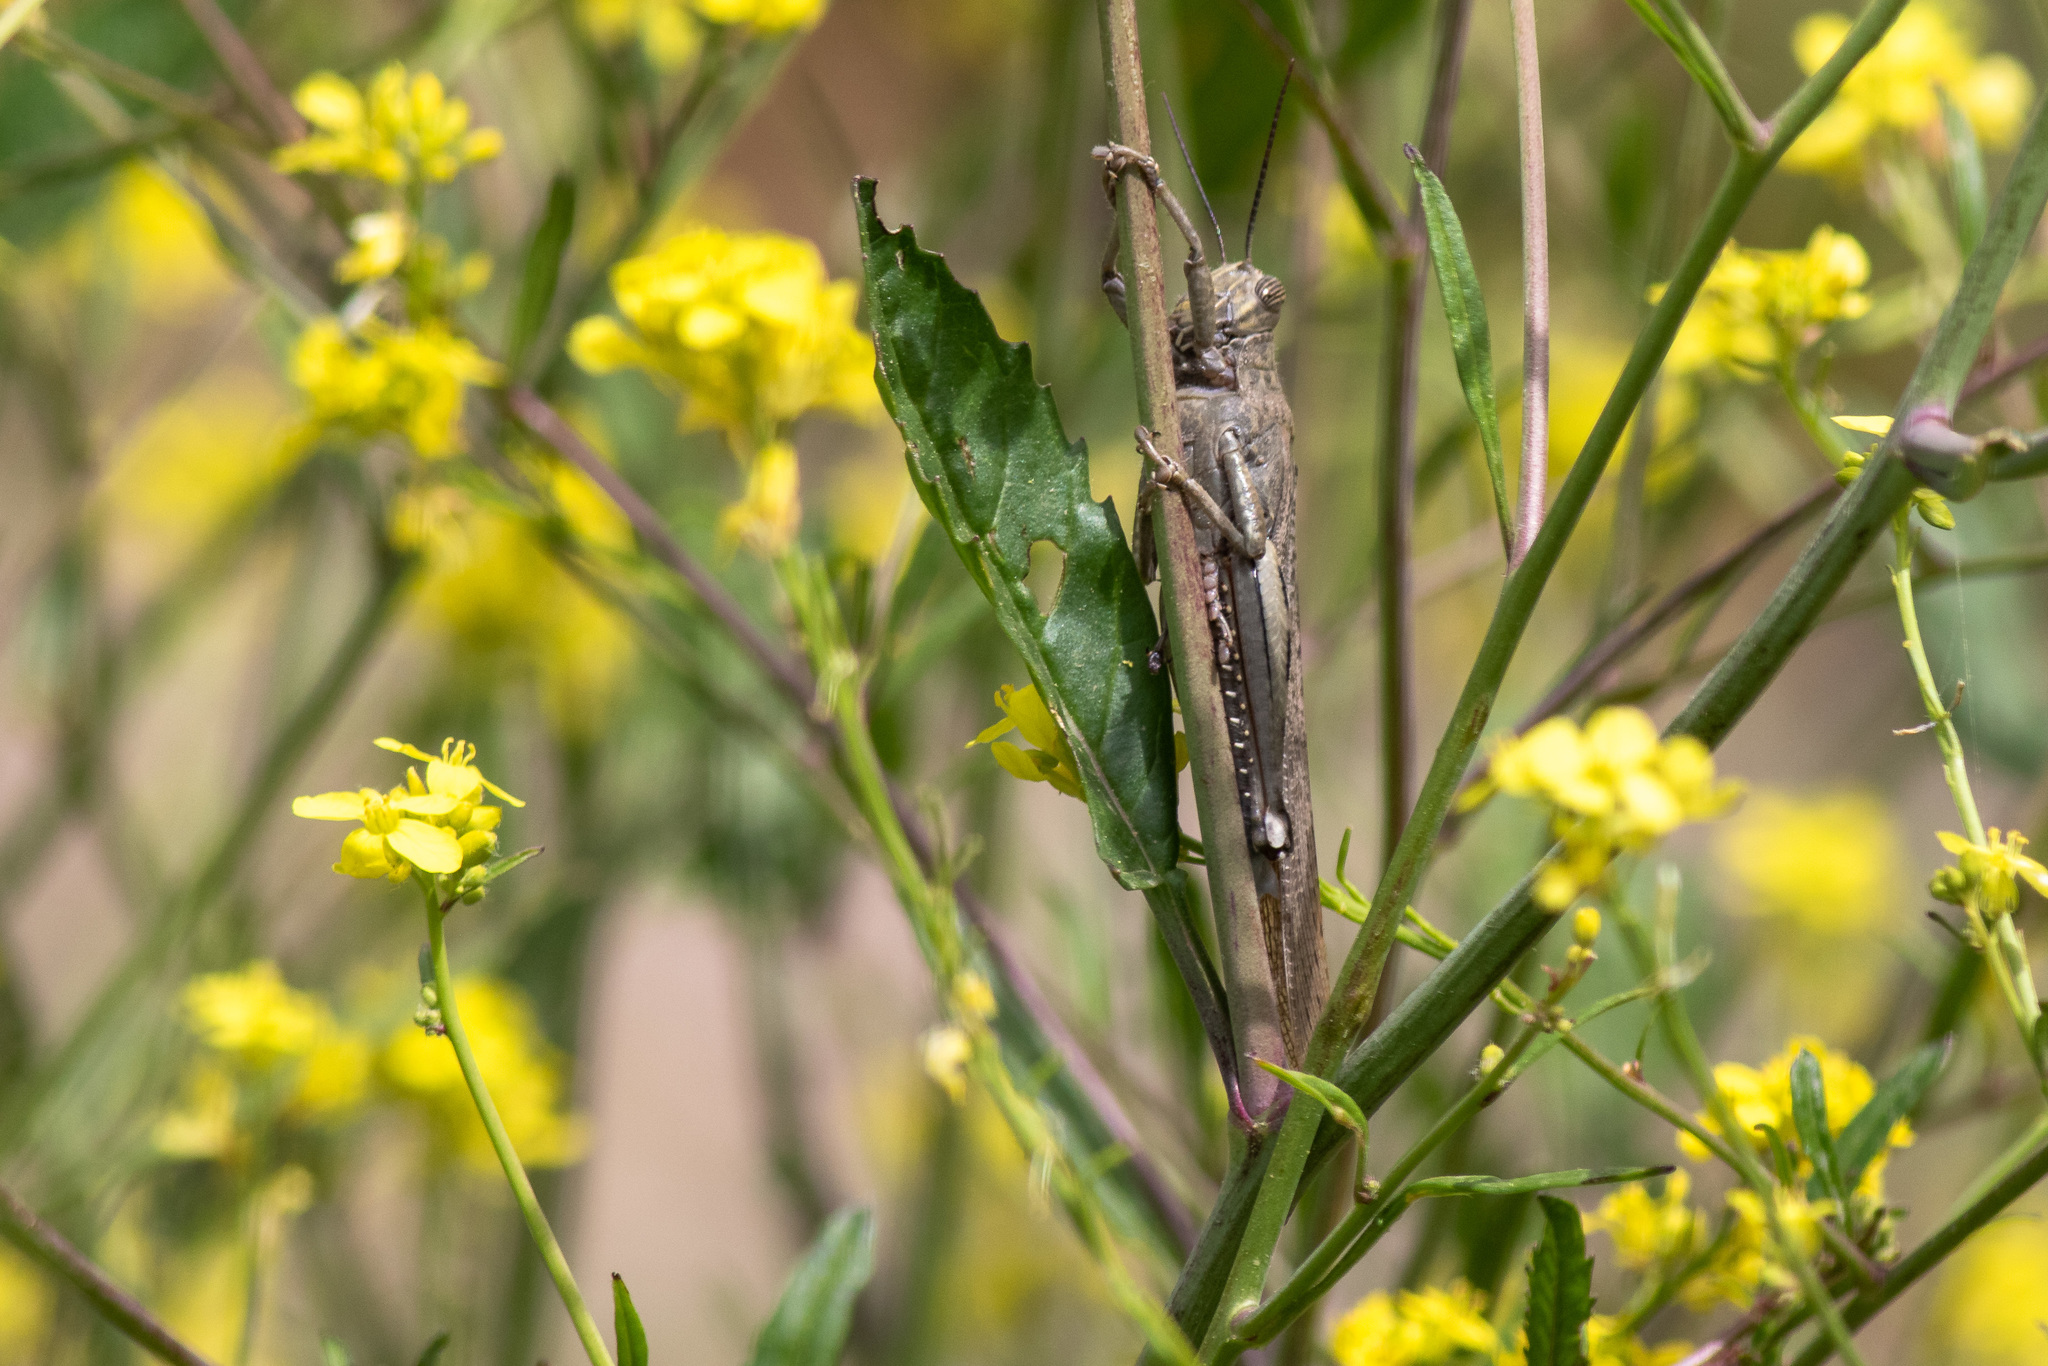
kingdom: Animalia
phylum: Arthropoda
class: Insecta
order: Orthoptera
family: Acrididae
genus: Anacridium
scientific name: Anacridium aegyptium
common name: Egyptian grasshopper
